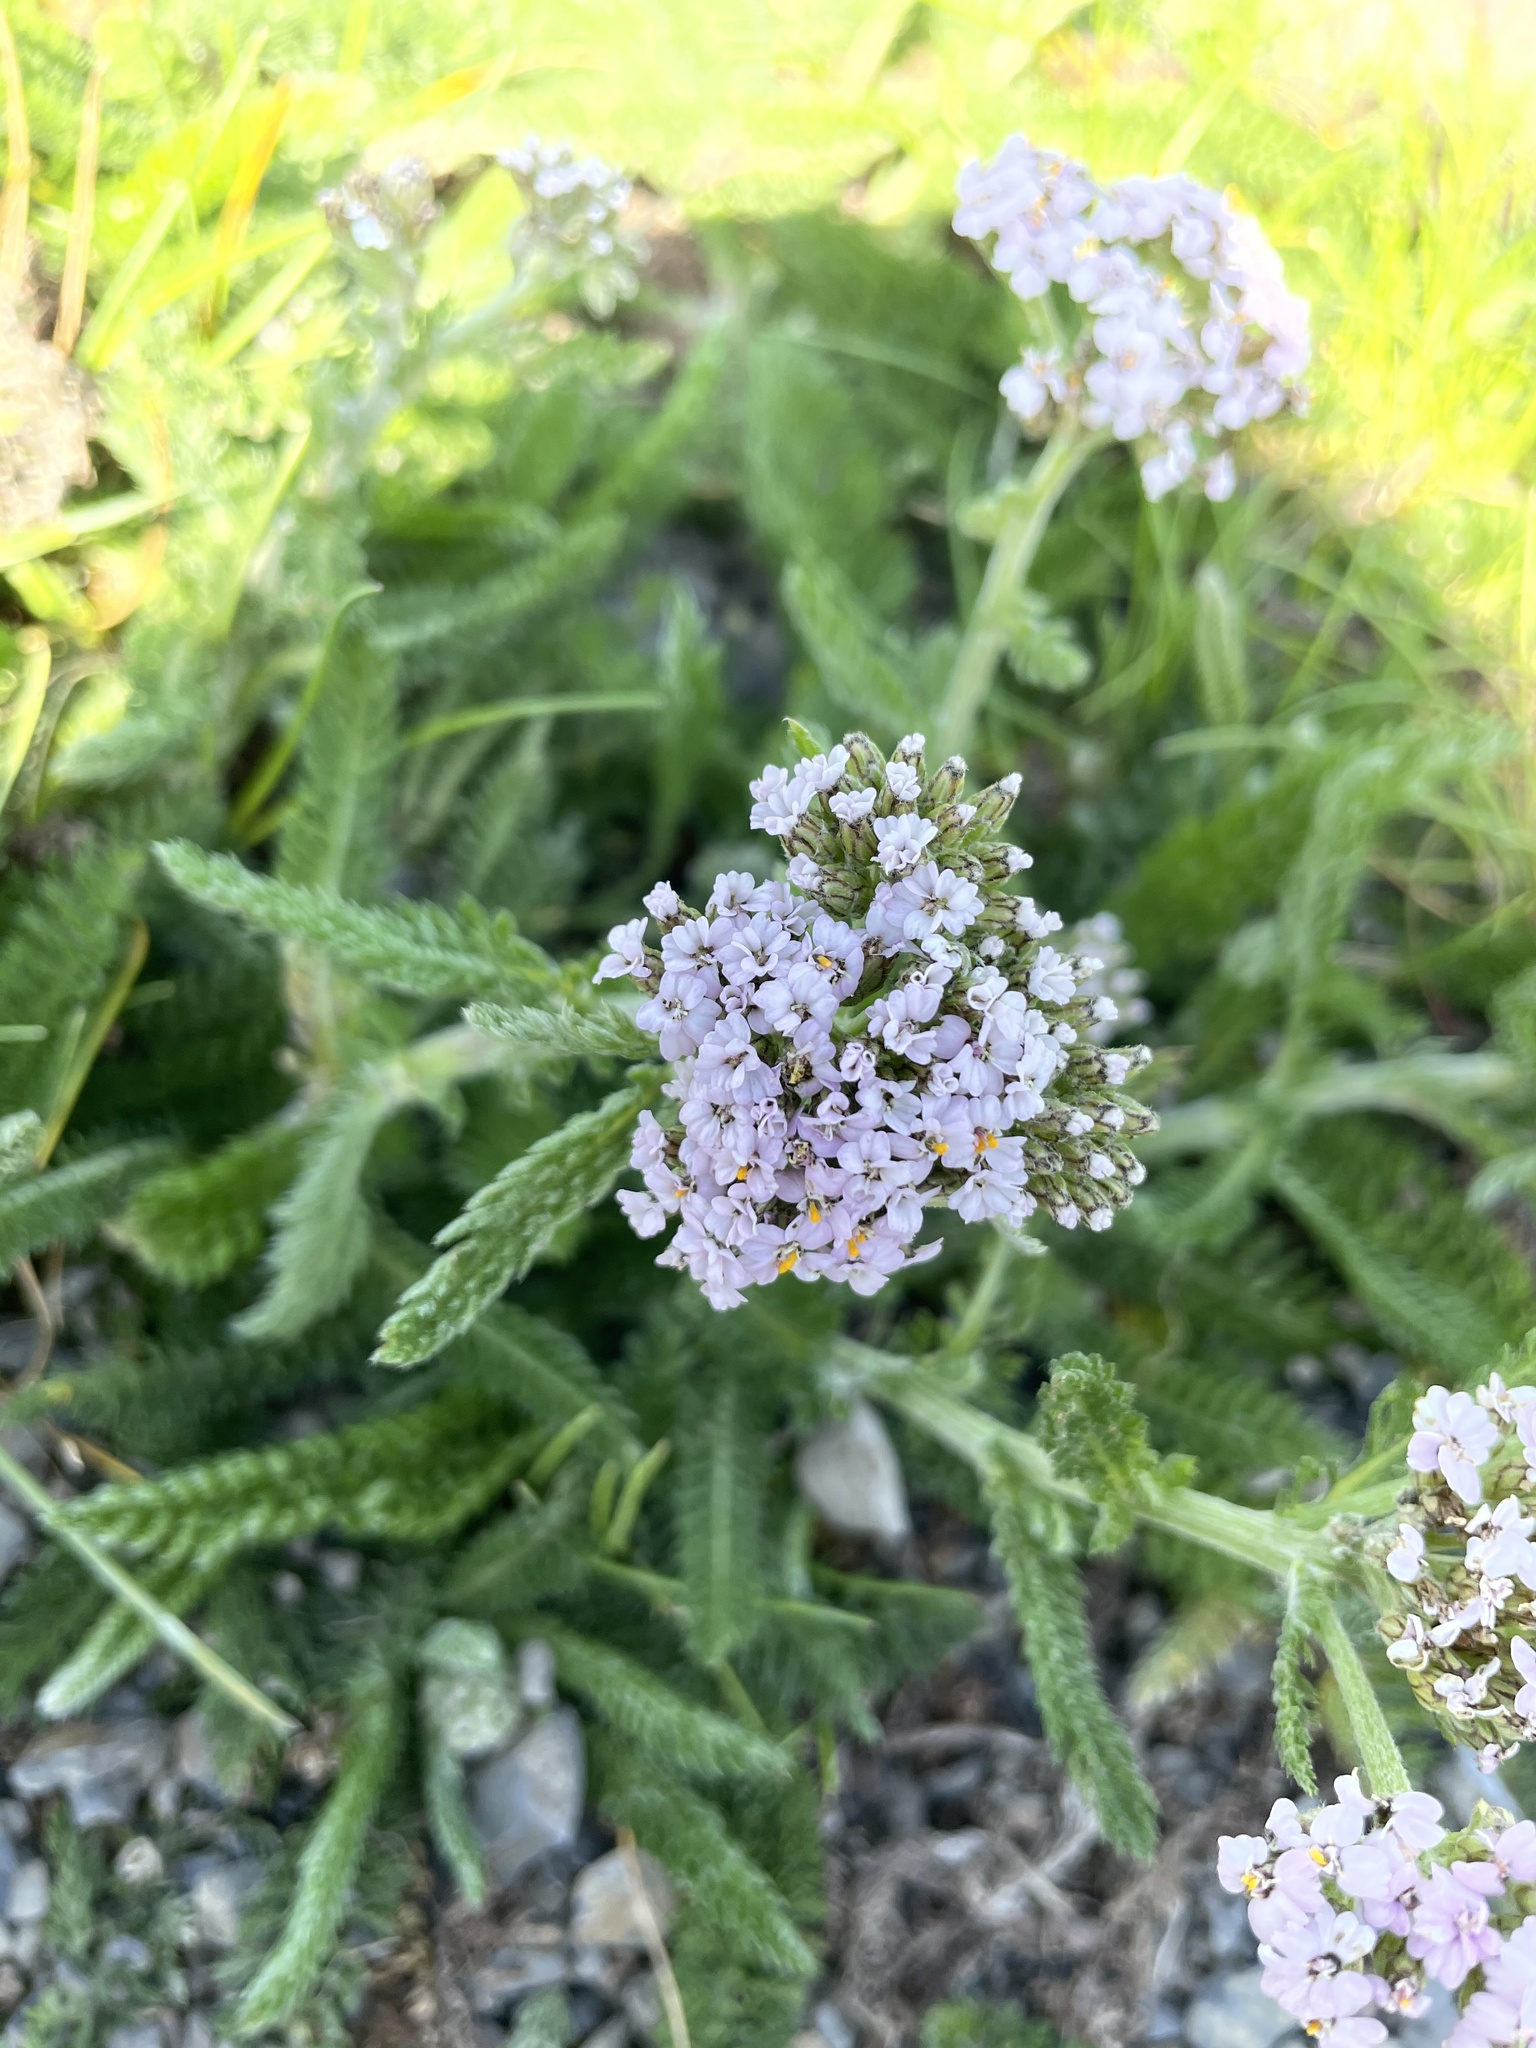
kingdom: Plantae
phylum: Tracheophyta
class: Magnoliopsida
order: Asterales
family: Asteraceae
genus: Achillea
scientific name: Achillea millefolium
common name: Yarrow
